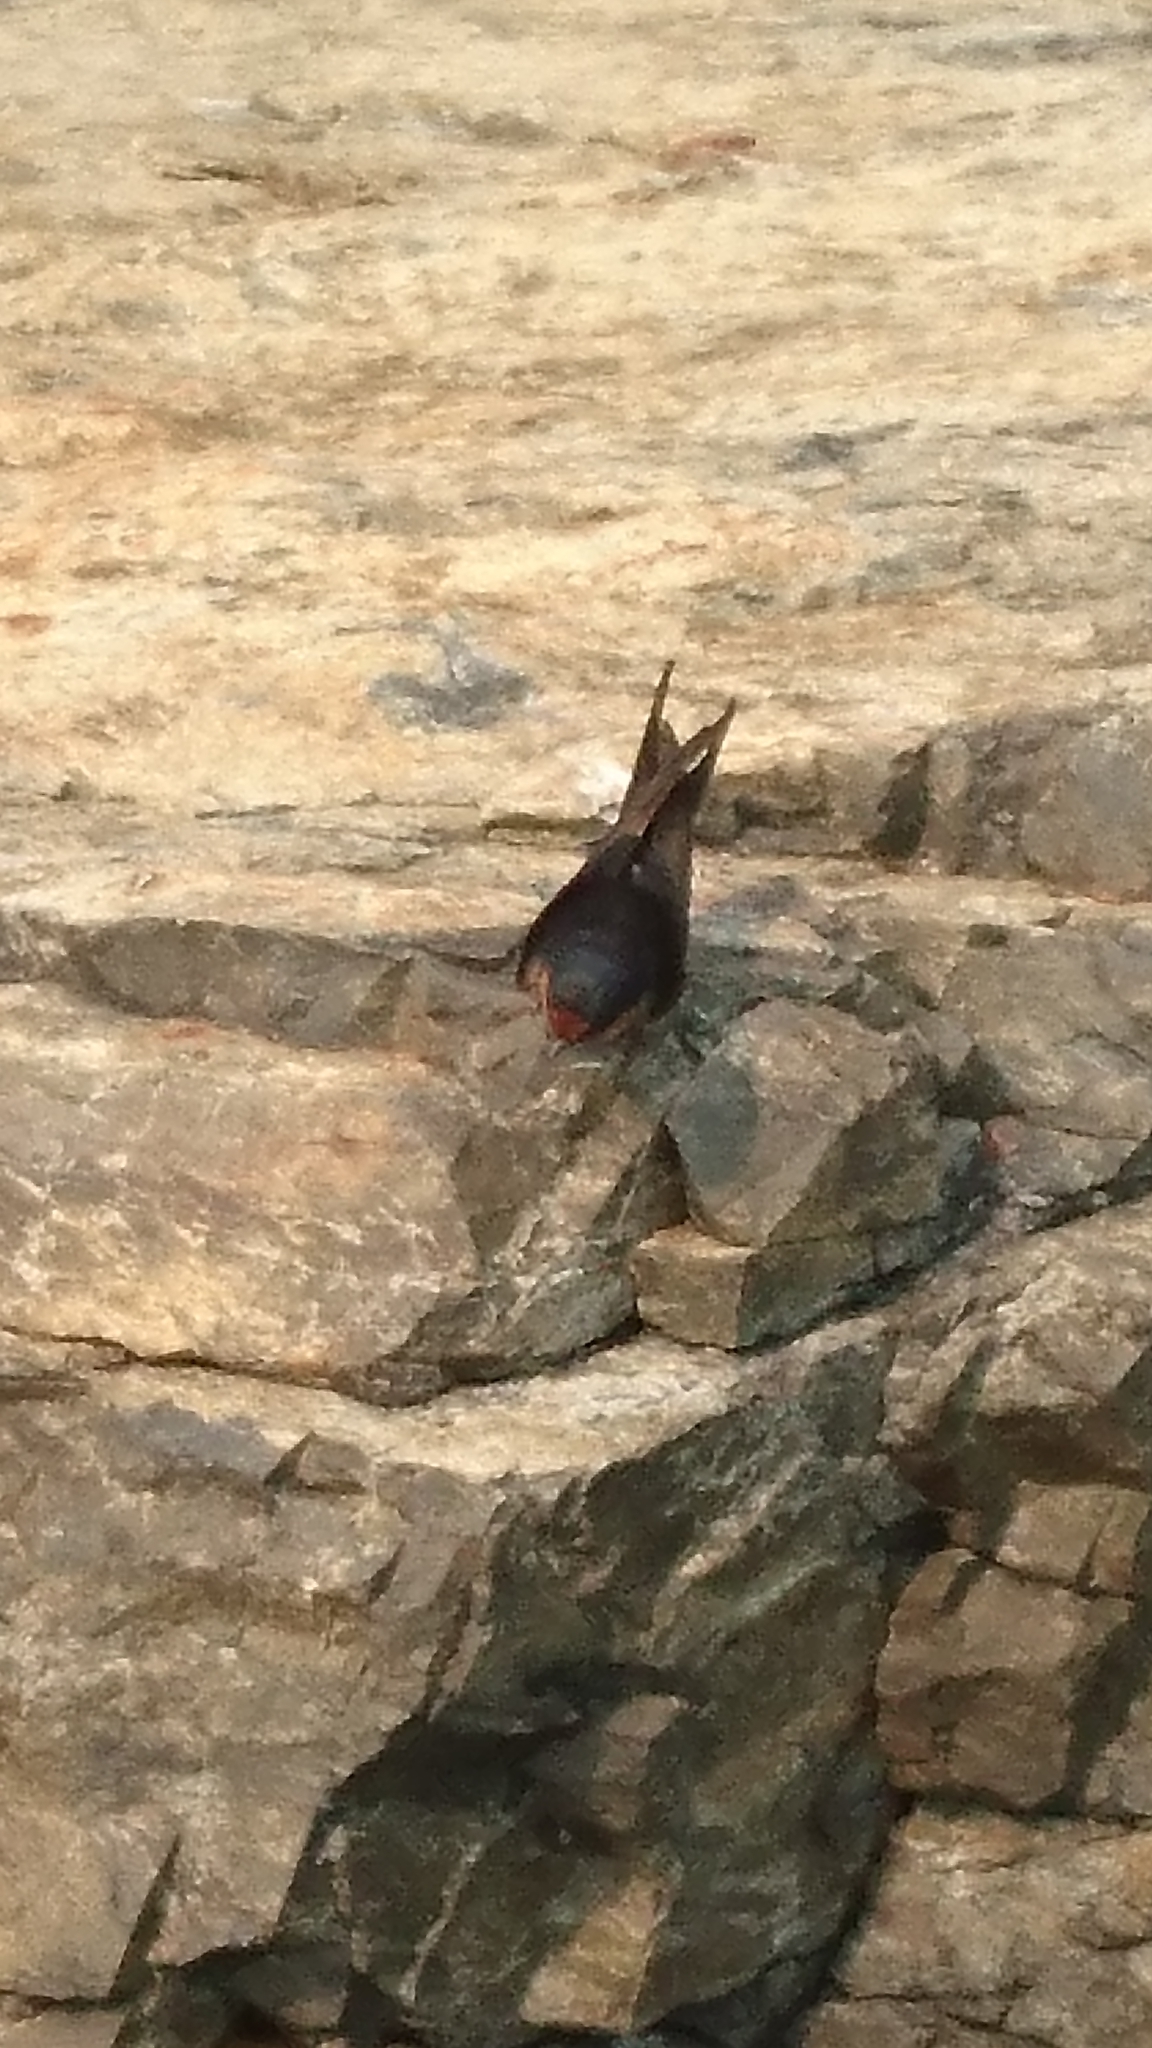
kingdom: Animalia
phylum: Chordata
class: Aves
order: Passeriformes
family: Hirundinidae
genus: Hirundo
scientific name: Hirundo neoxena
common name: Welcome swallow
